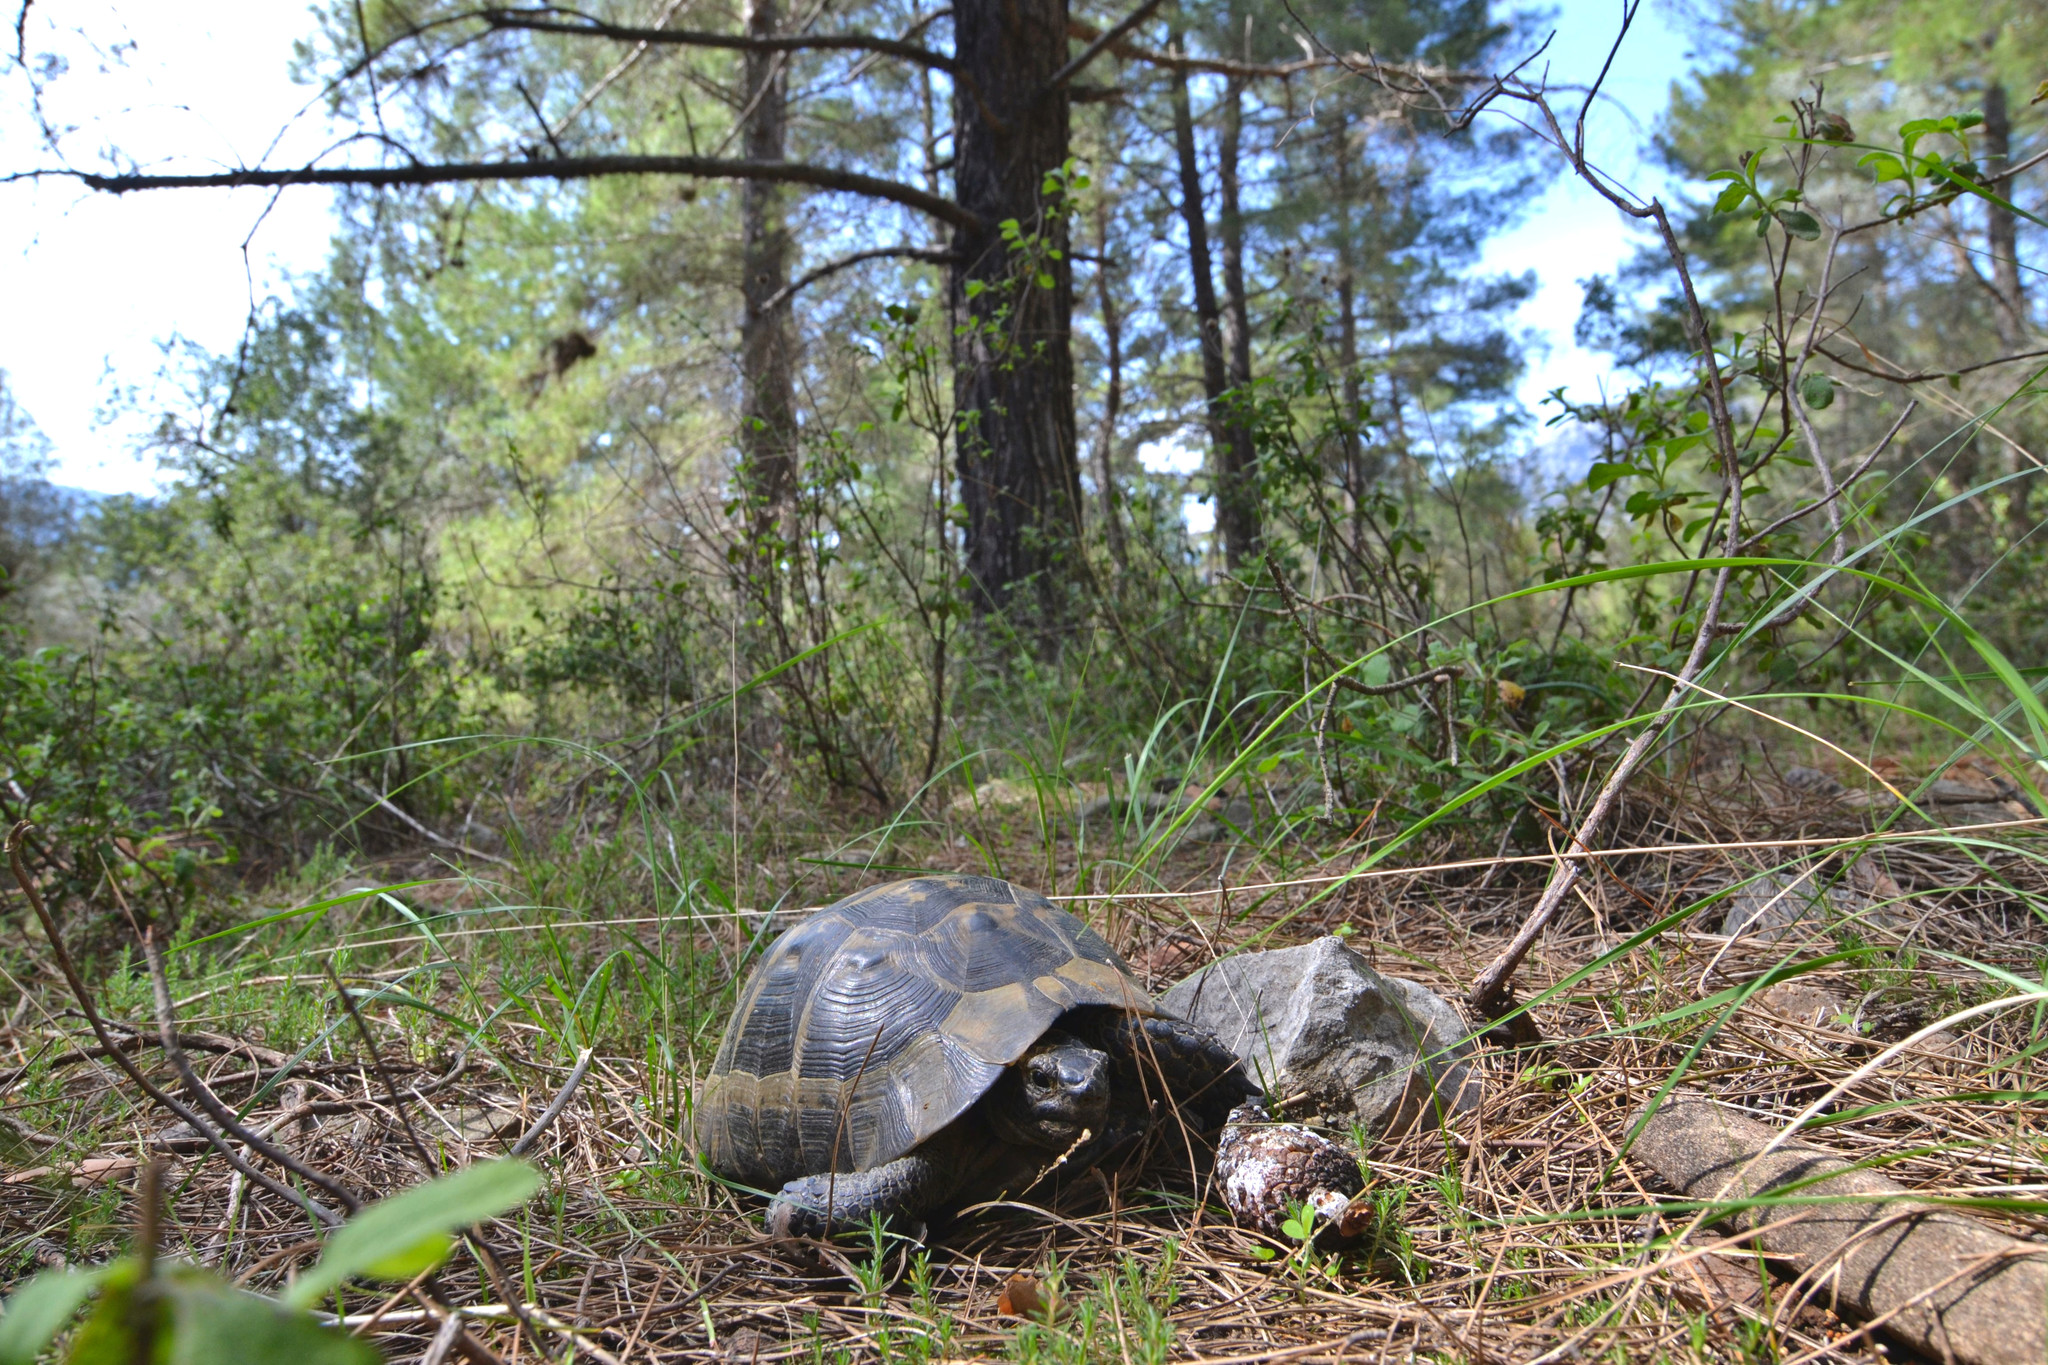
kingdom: Animalia
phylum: Chordata
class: Testudines
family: Testudinidae
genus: Testudo
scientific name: Testudo graeca
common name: Common tortoise
